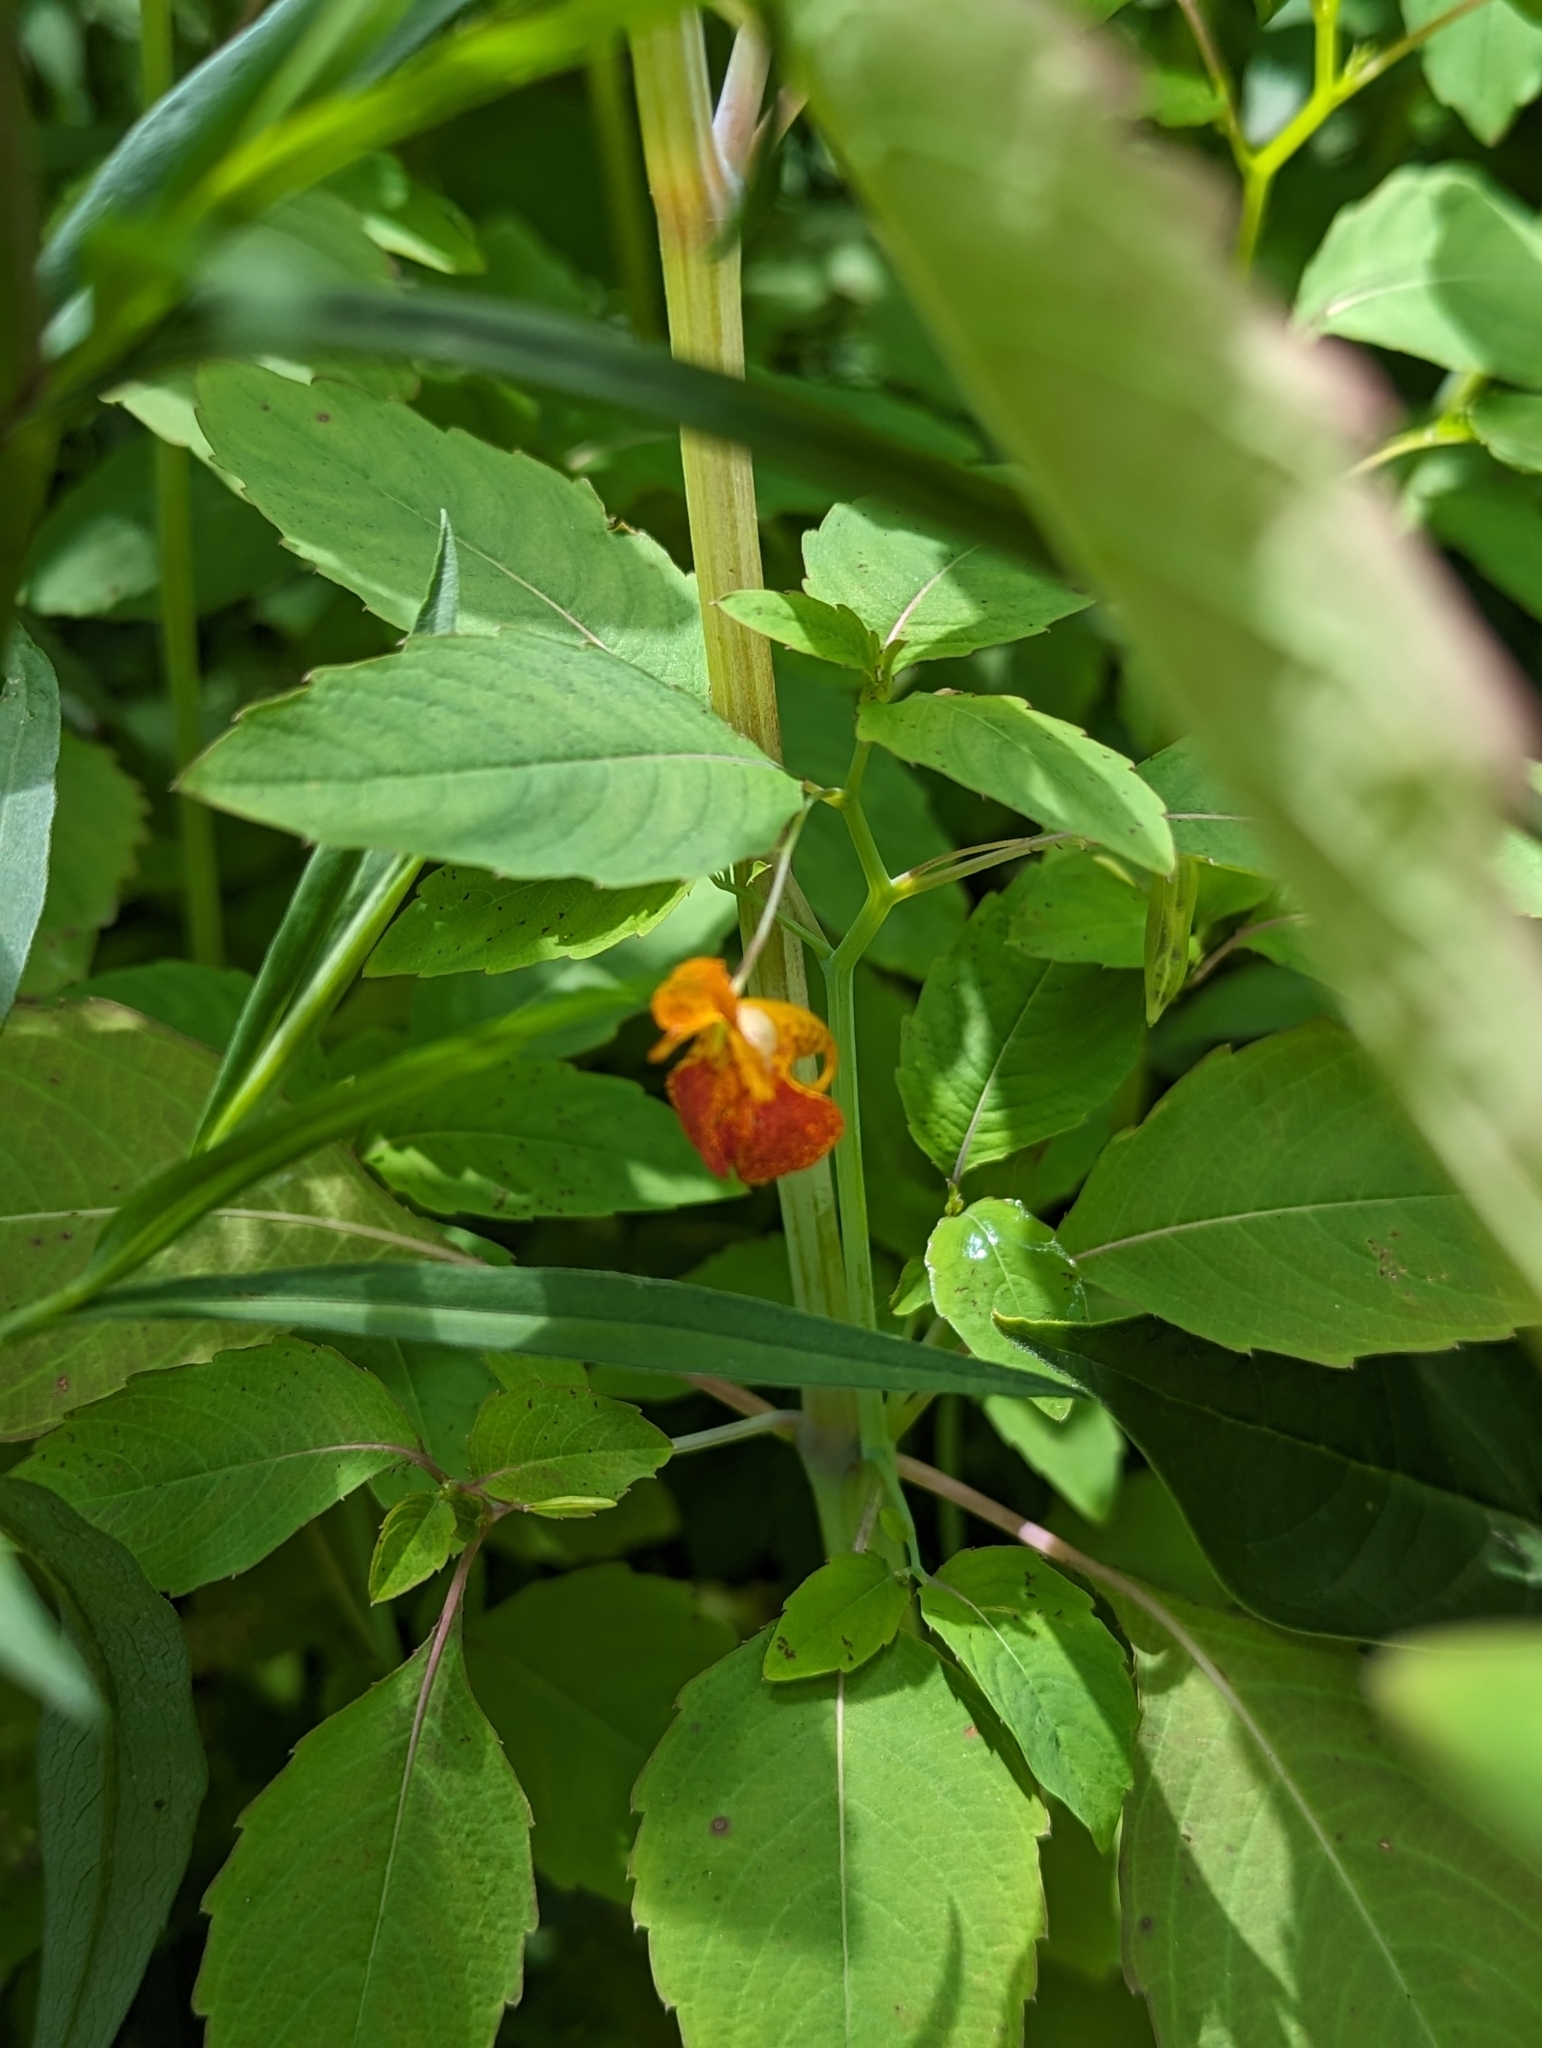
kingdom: Plantae
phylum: Tracheophyta
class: Magnoliopsida
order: Ericales
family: Balsaminaceae
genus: Impatiens
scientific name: Impatiens capensis
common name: Orange balsam
